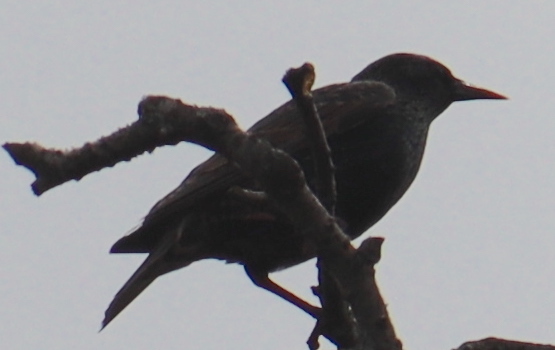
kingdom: Animalia
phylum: Chordata
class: Aves
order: Passeriformes
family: Sturnidae
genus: Sturnus
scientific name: Sturnus vulgaris
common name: Common starling
